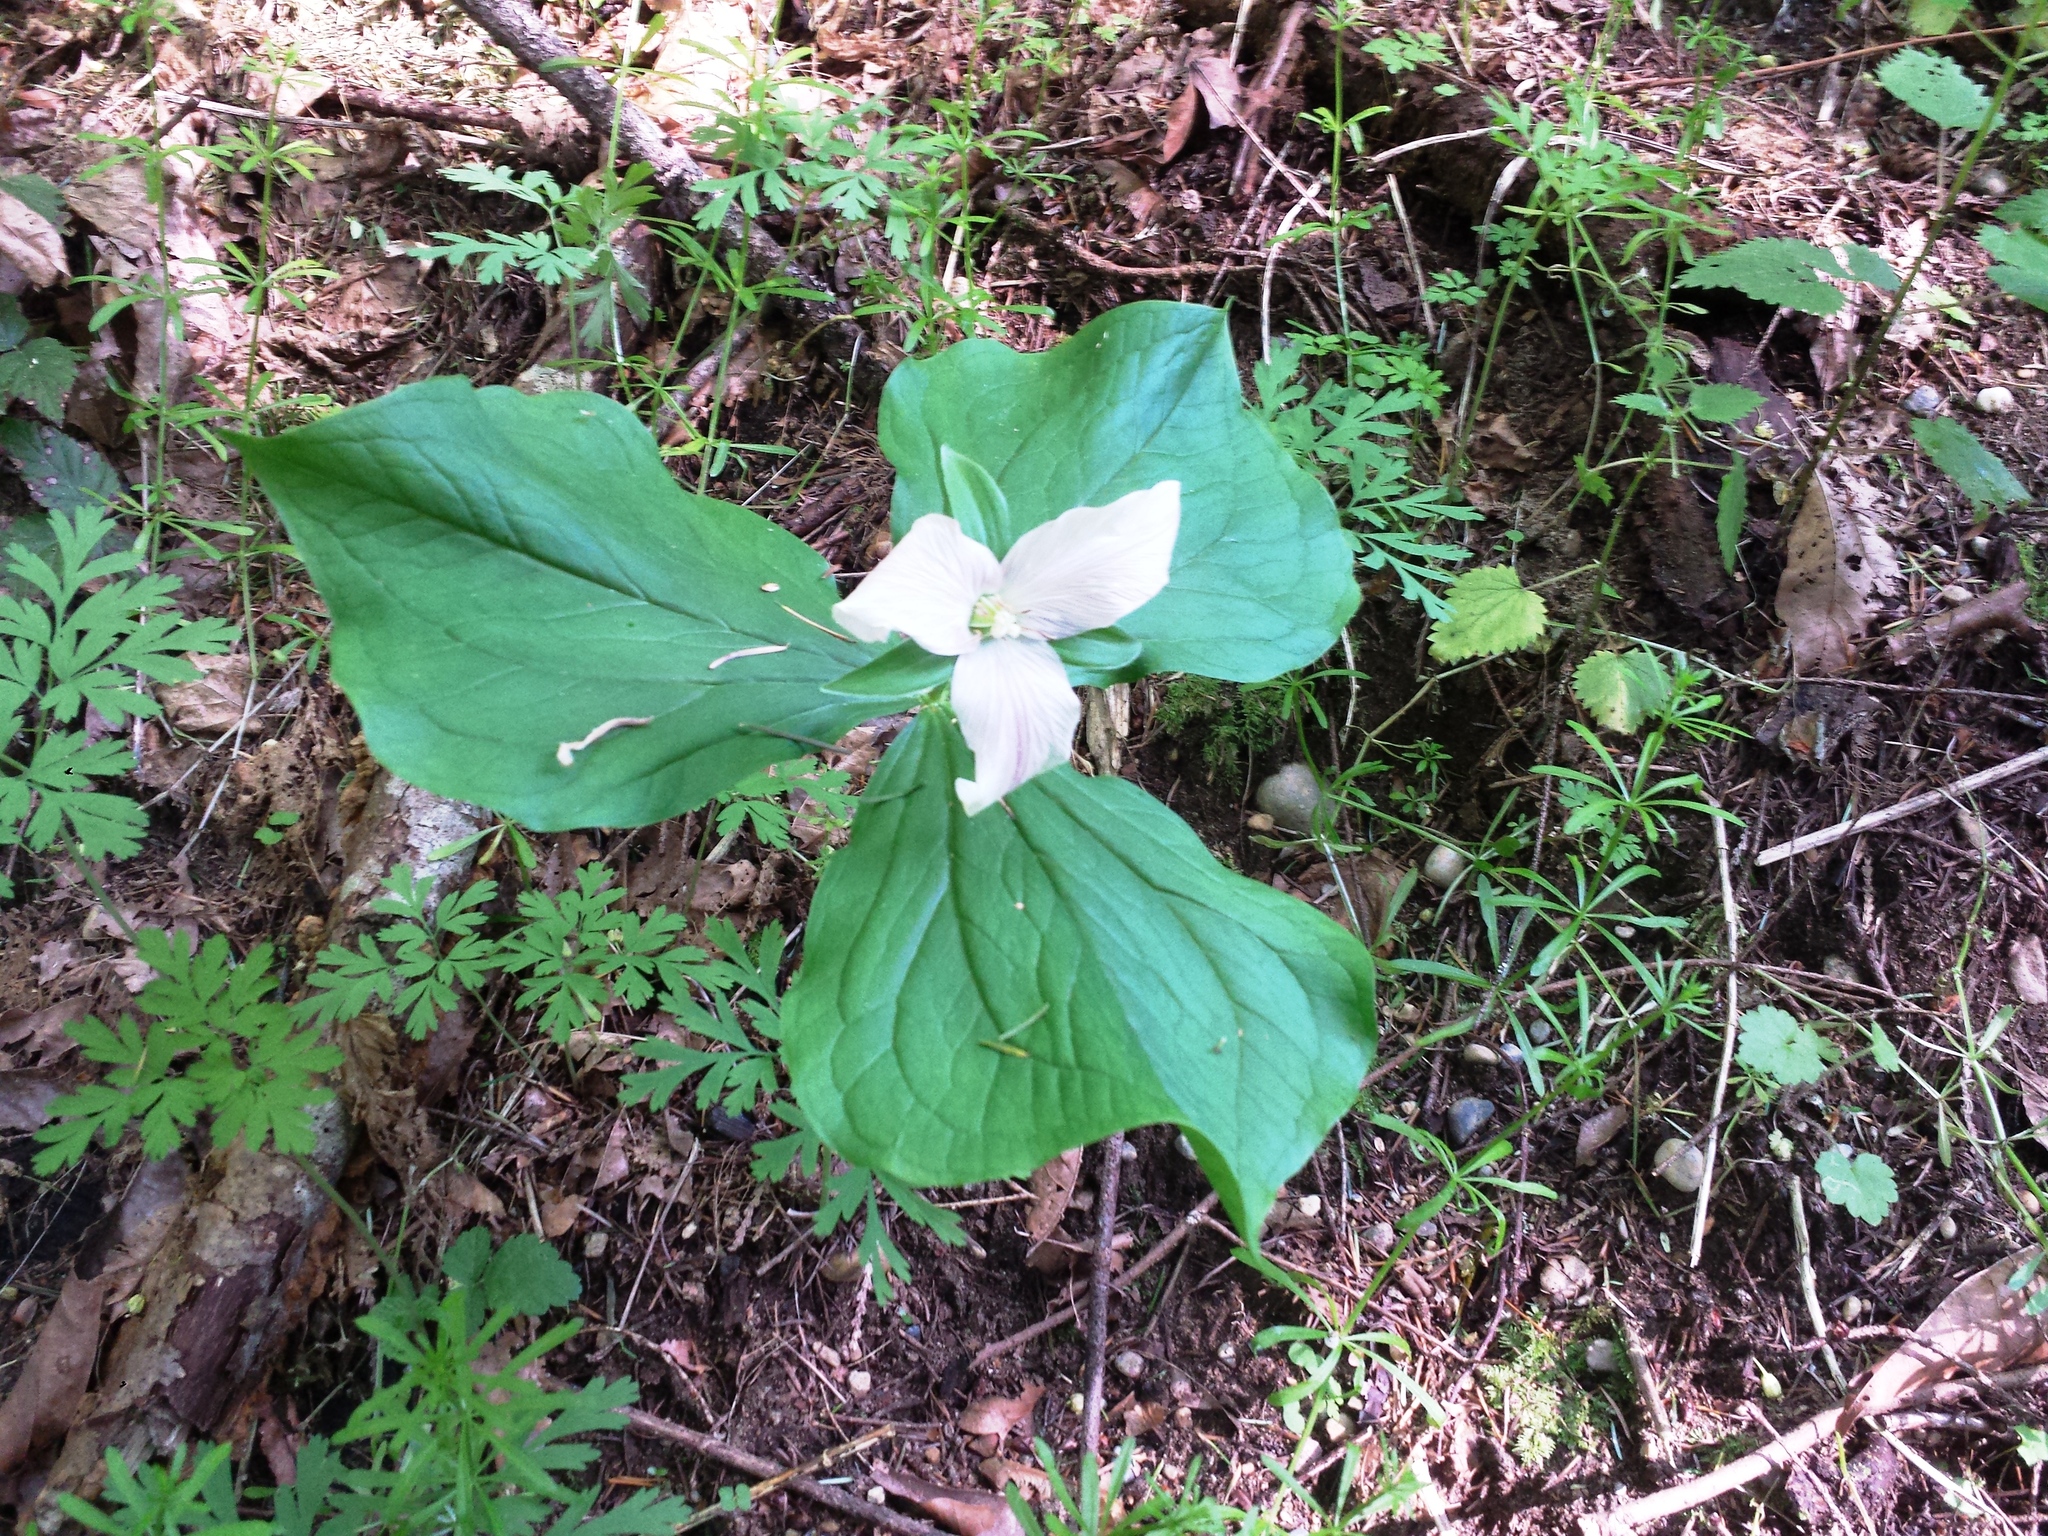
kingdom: Plantae
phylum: Tracheophyta
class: Liliopsida
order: Liliales
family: Melanthiaceae
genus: Trillium
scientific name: Trillium ovatum
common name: Pacific trillium
